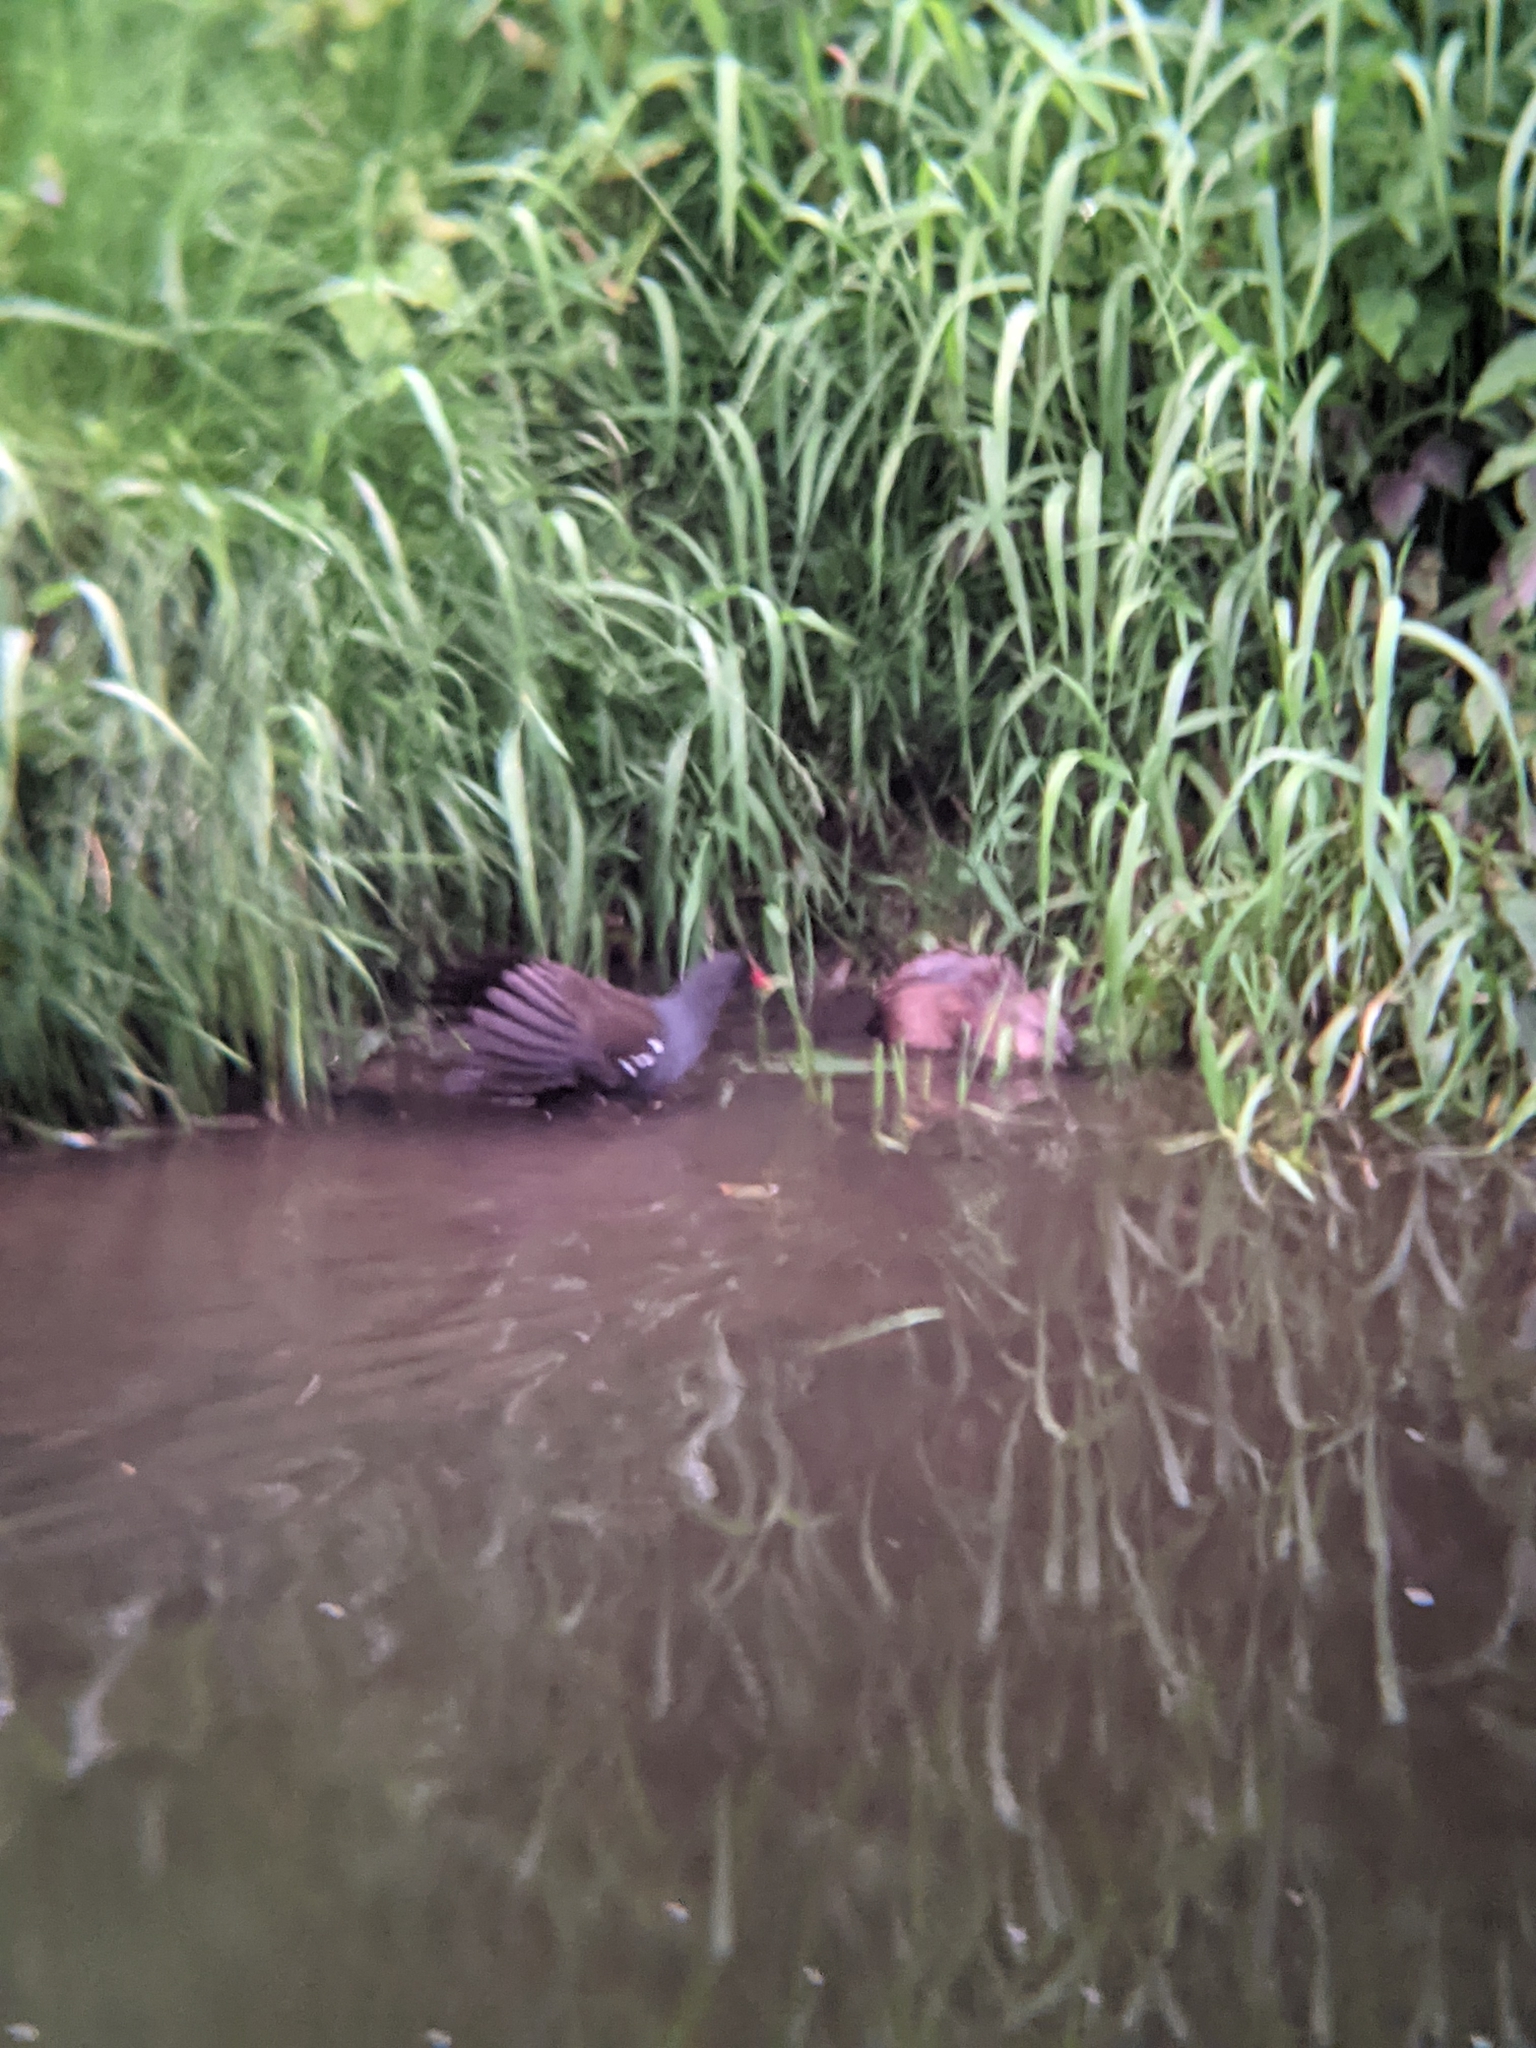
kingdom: Animalia
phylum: Chordata
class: Mammalia
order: Rodentia
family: Cricetidae
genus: Ondatra
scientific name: Ondatra zibethicus
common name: Muskrat
